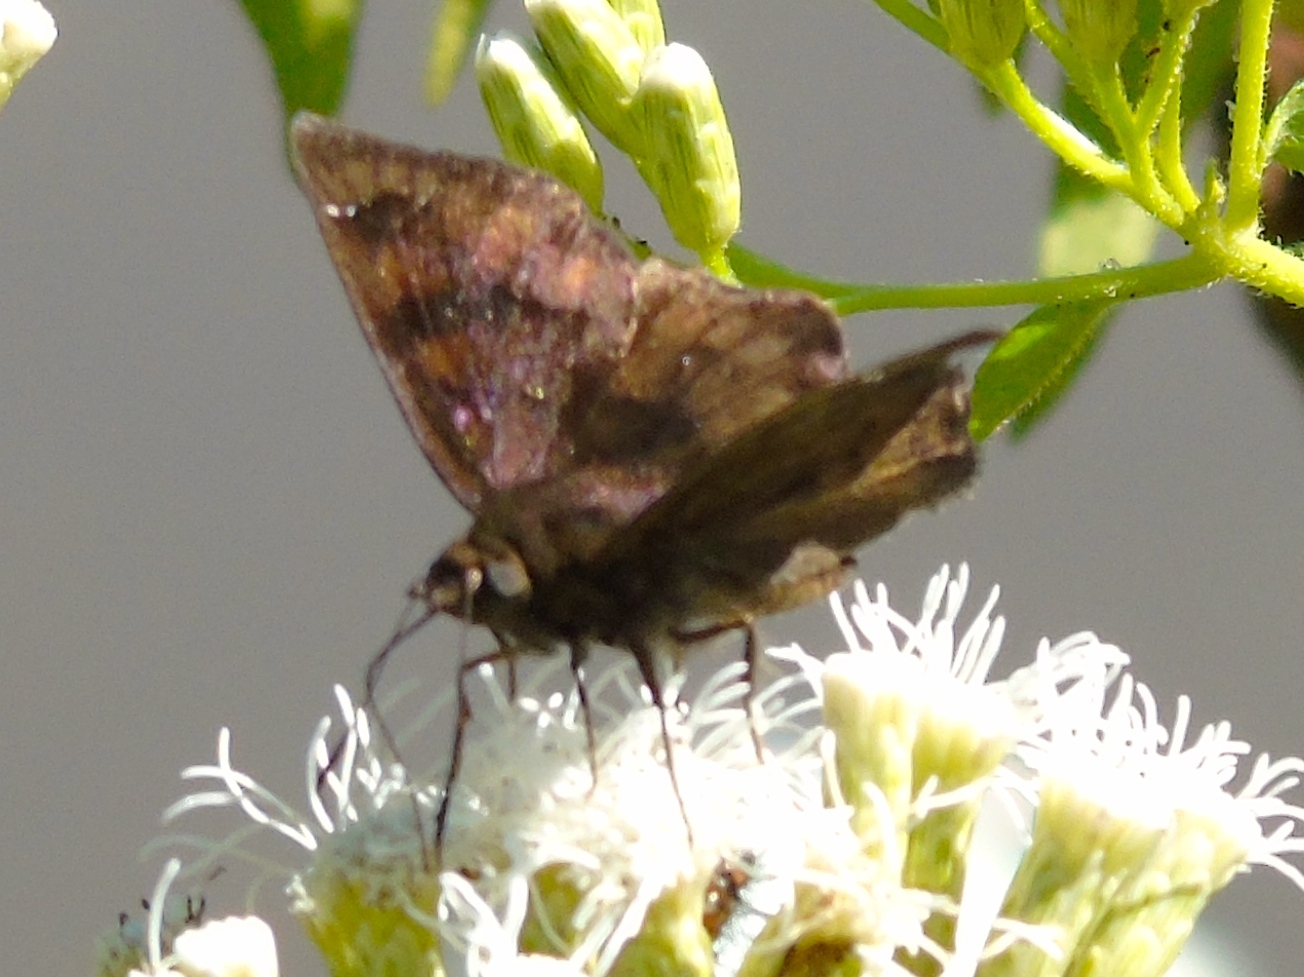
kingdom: Animalia
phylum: Arthropoda
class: Insecta
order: Lepidoptera
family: Hesperiidae
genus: Nisoniades
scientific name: Nisoniades
